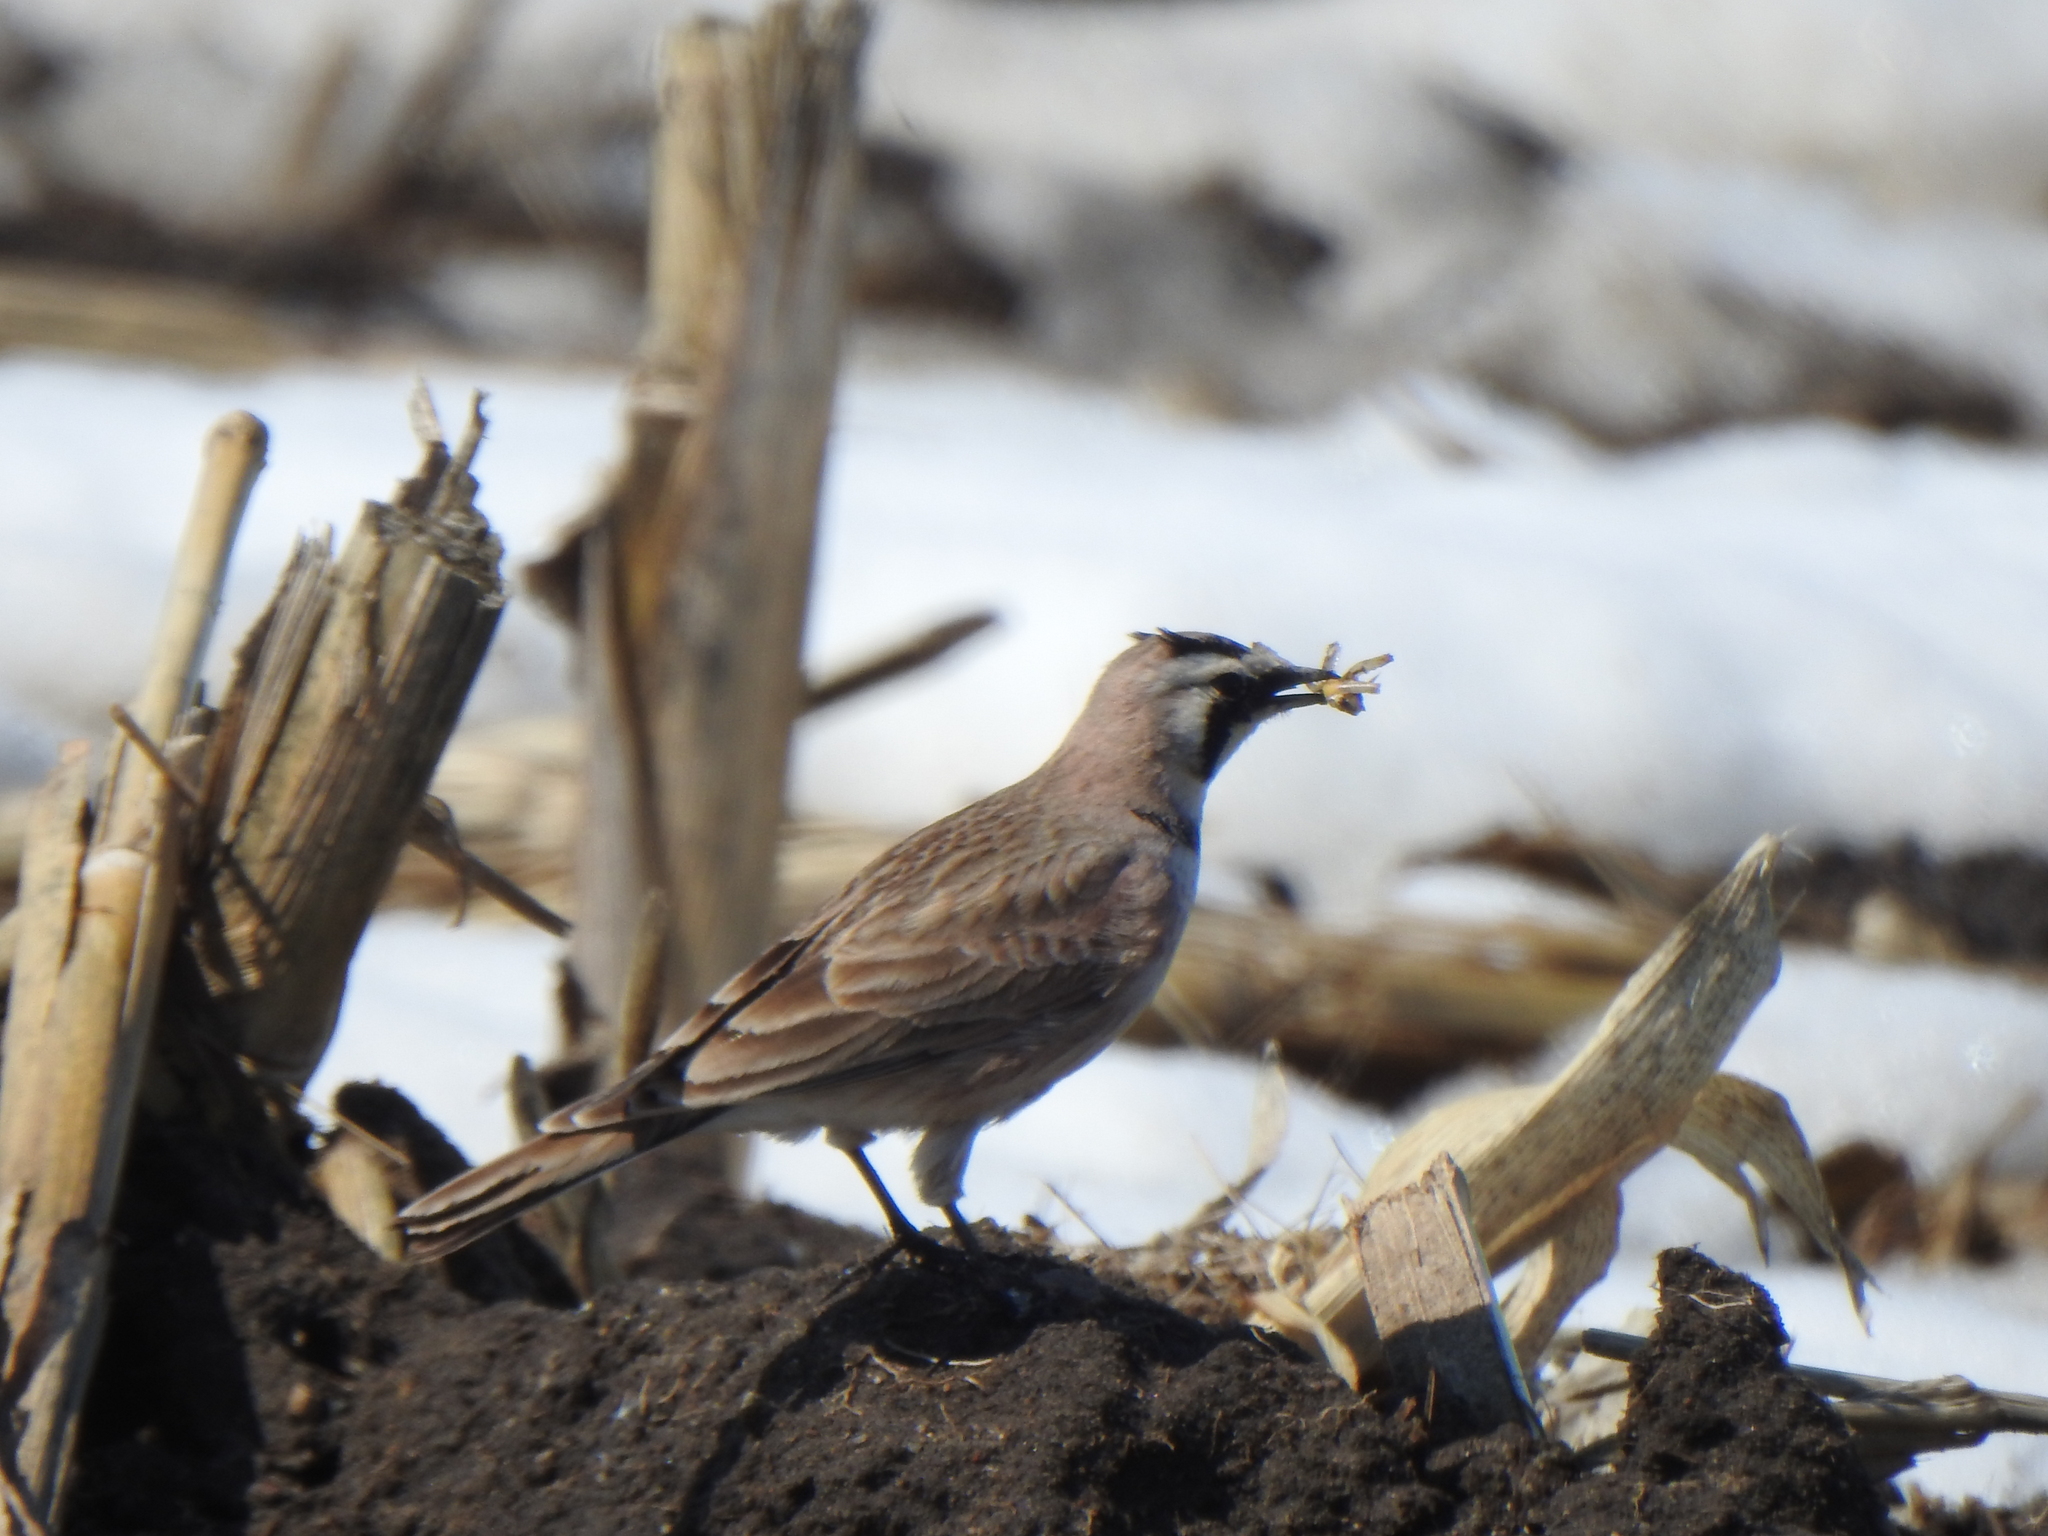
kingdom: Animalia
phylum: Chordata
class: Aves
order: Passeriformes
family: Alaudidae
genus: Eremophila
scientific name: Eremophila alpestris
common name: Horned lark
